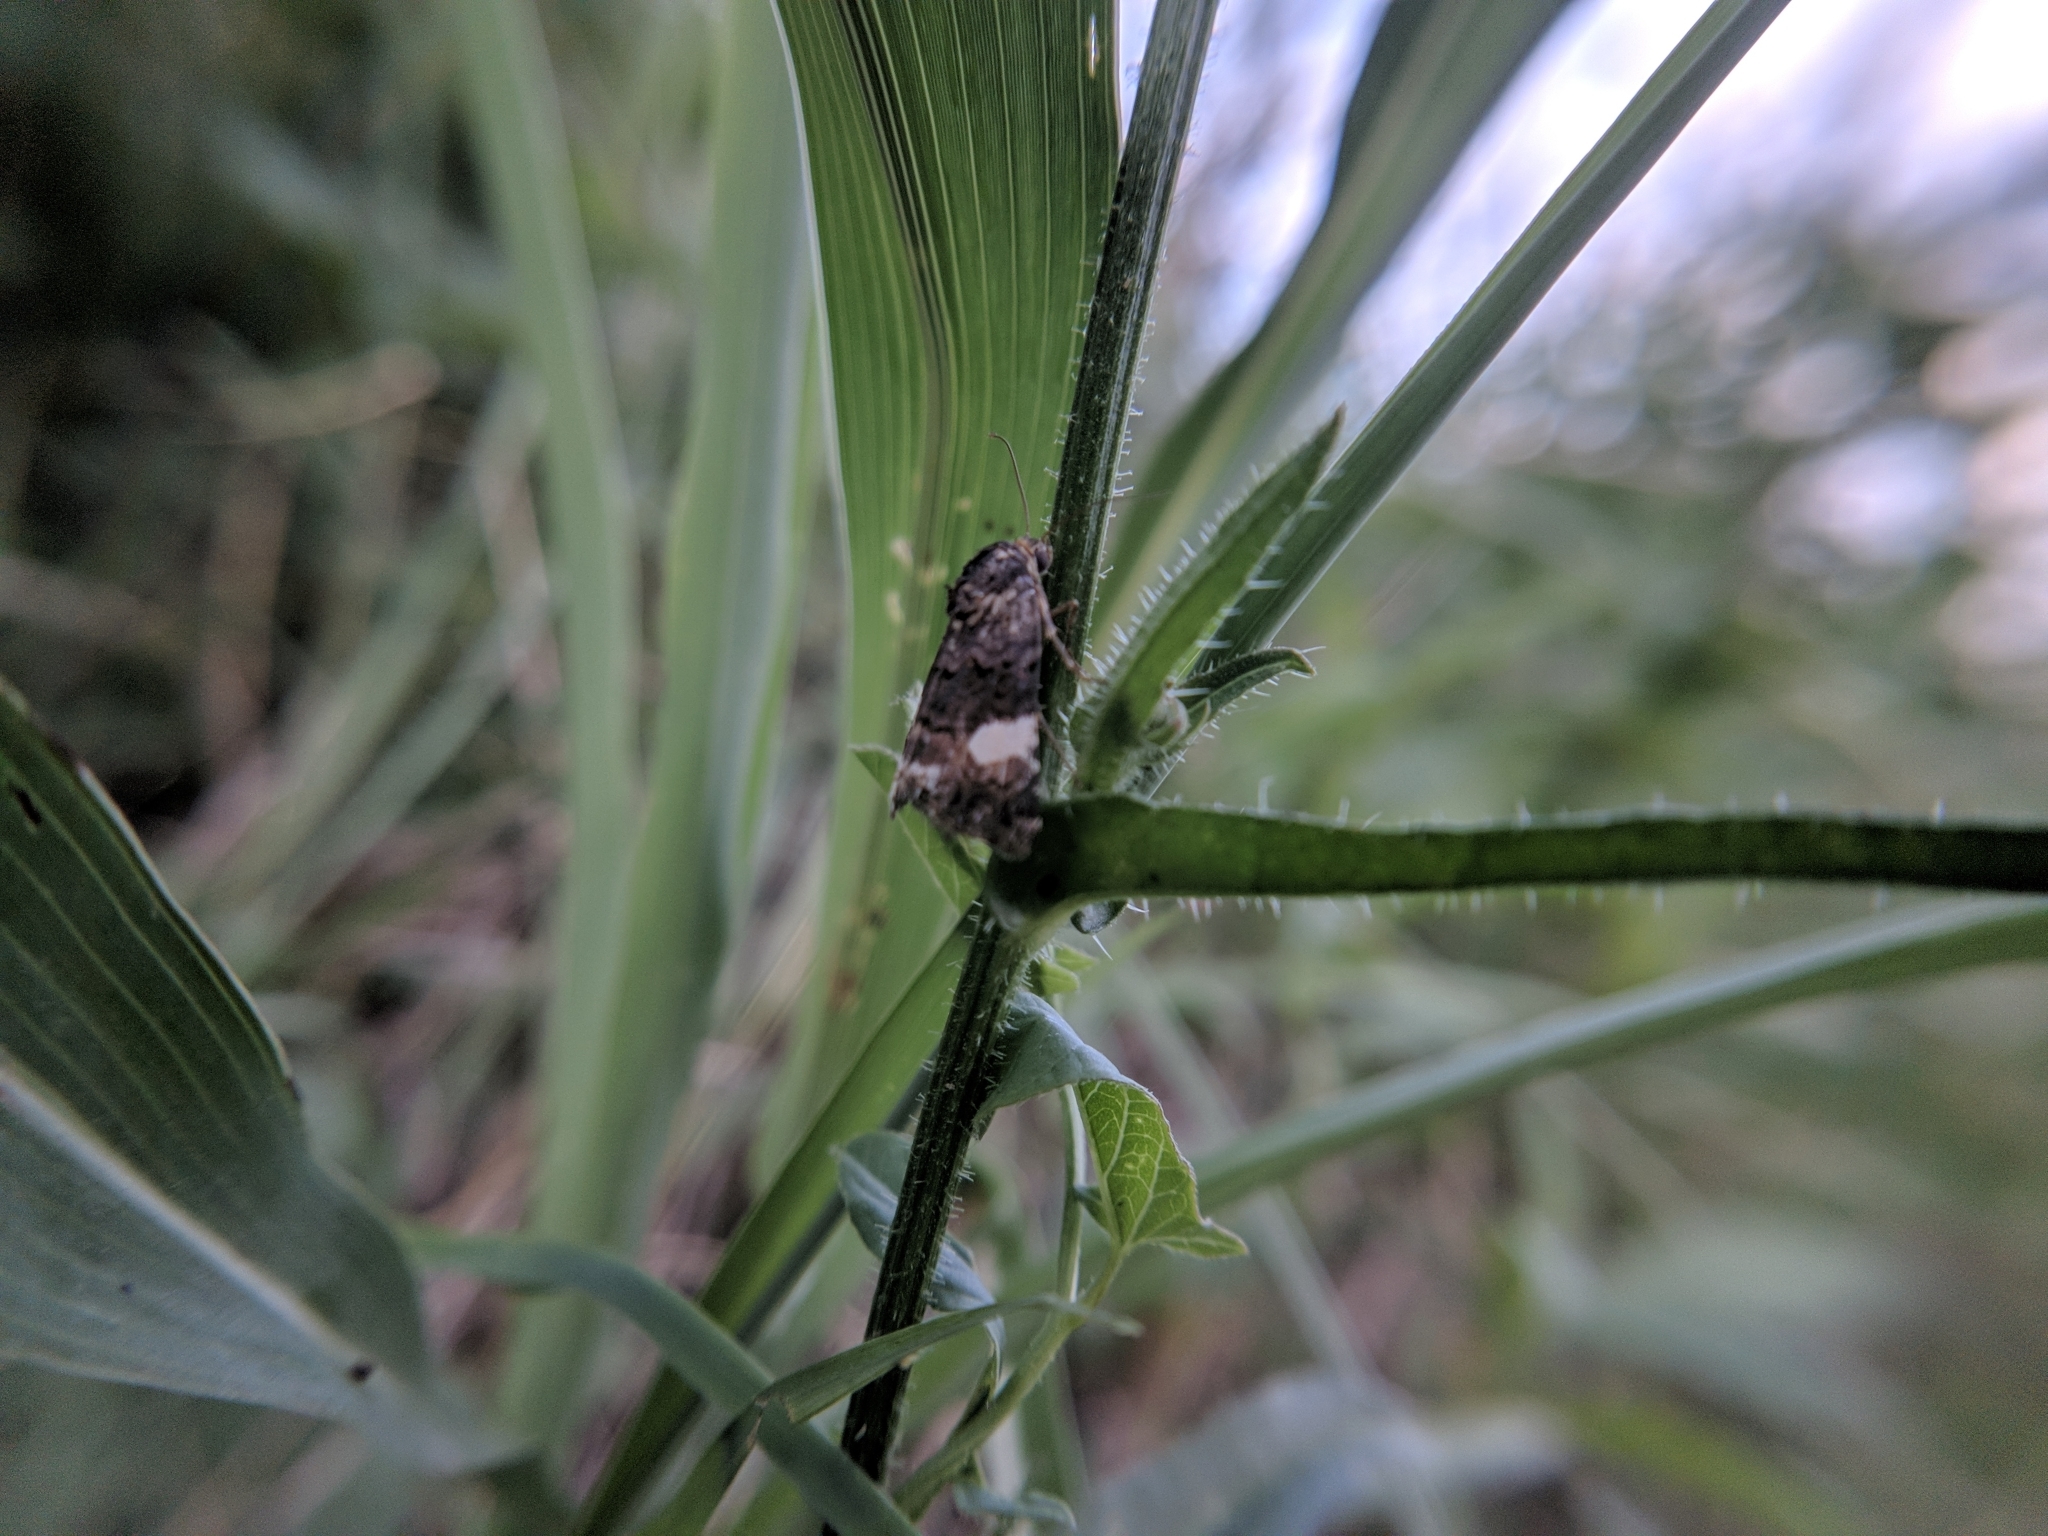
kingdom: Animalia
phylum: Arthropoda
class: Insecta
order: Lepidoptera
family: Erebidae
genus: Tyta
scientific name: Tyta luctuosa
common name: Four-spotted
